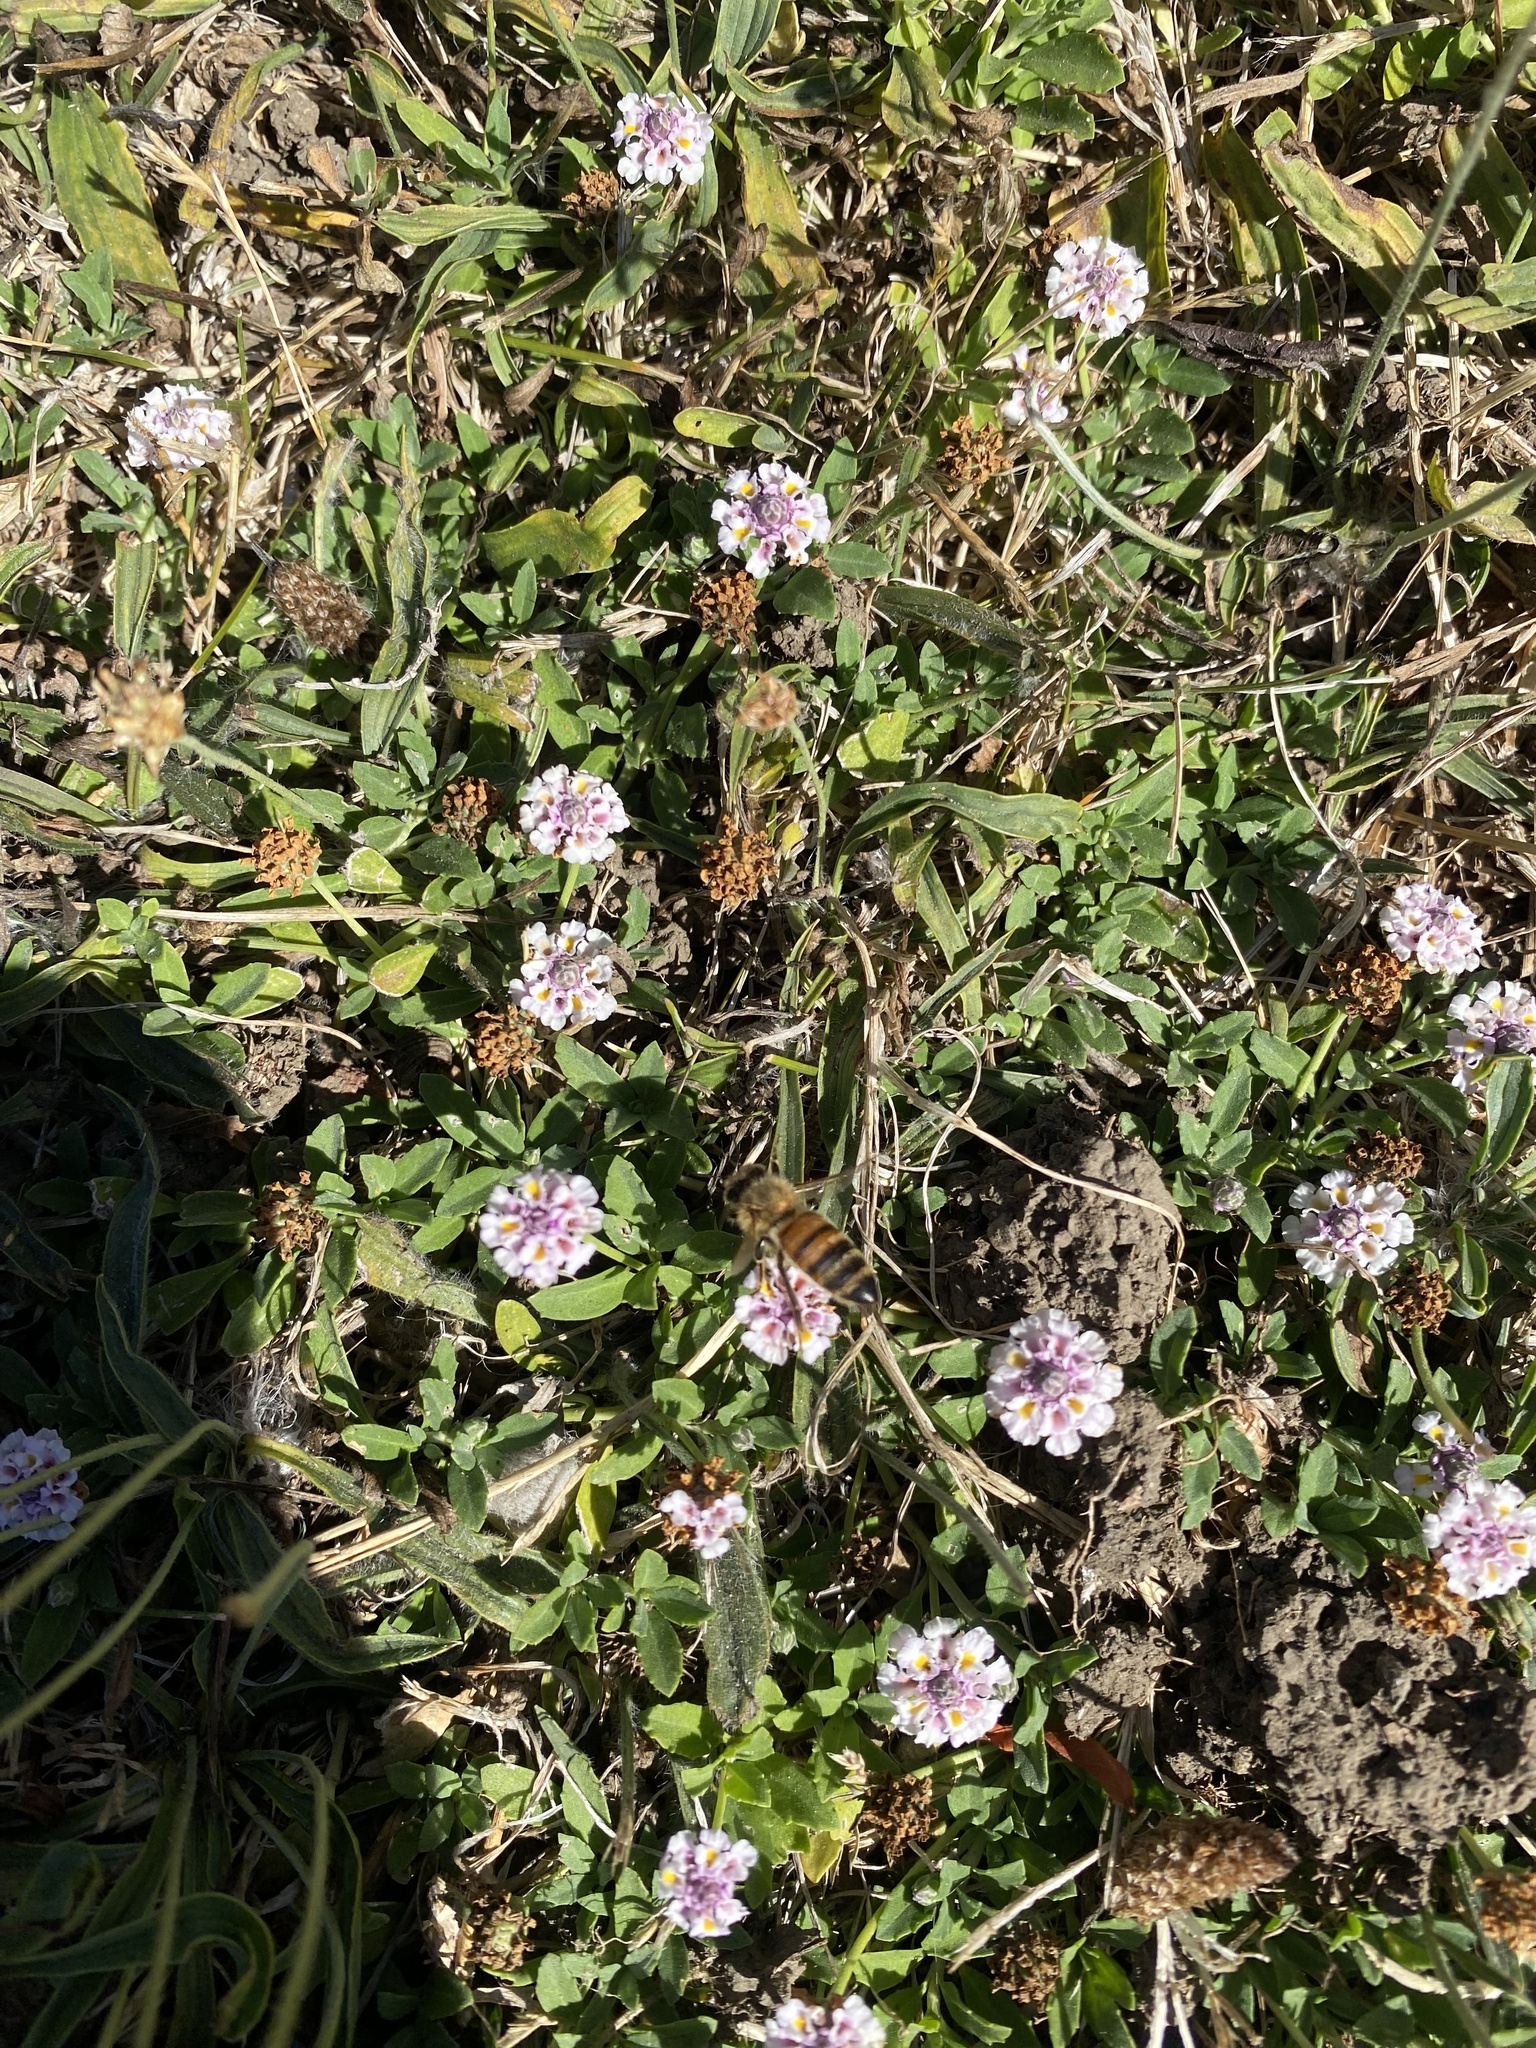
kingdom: Animalia
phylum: Arthropoda
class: Insecta
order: Hymenoptera
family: Apidae
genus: Apis
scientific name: Apis mellifera
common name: Honey bee
